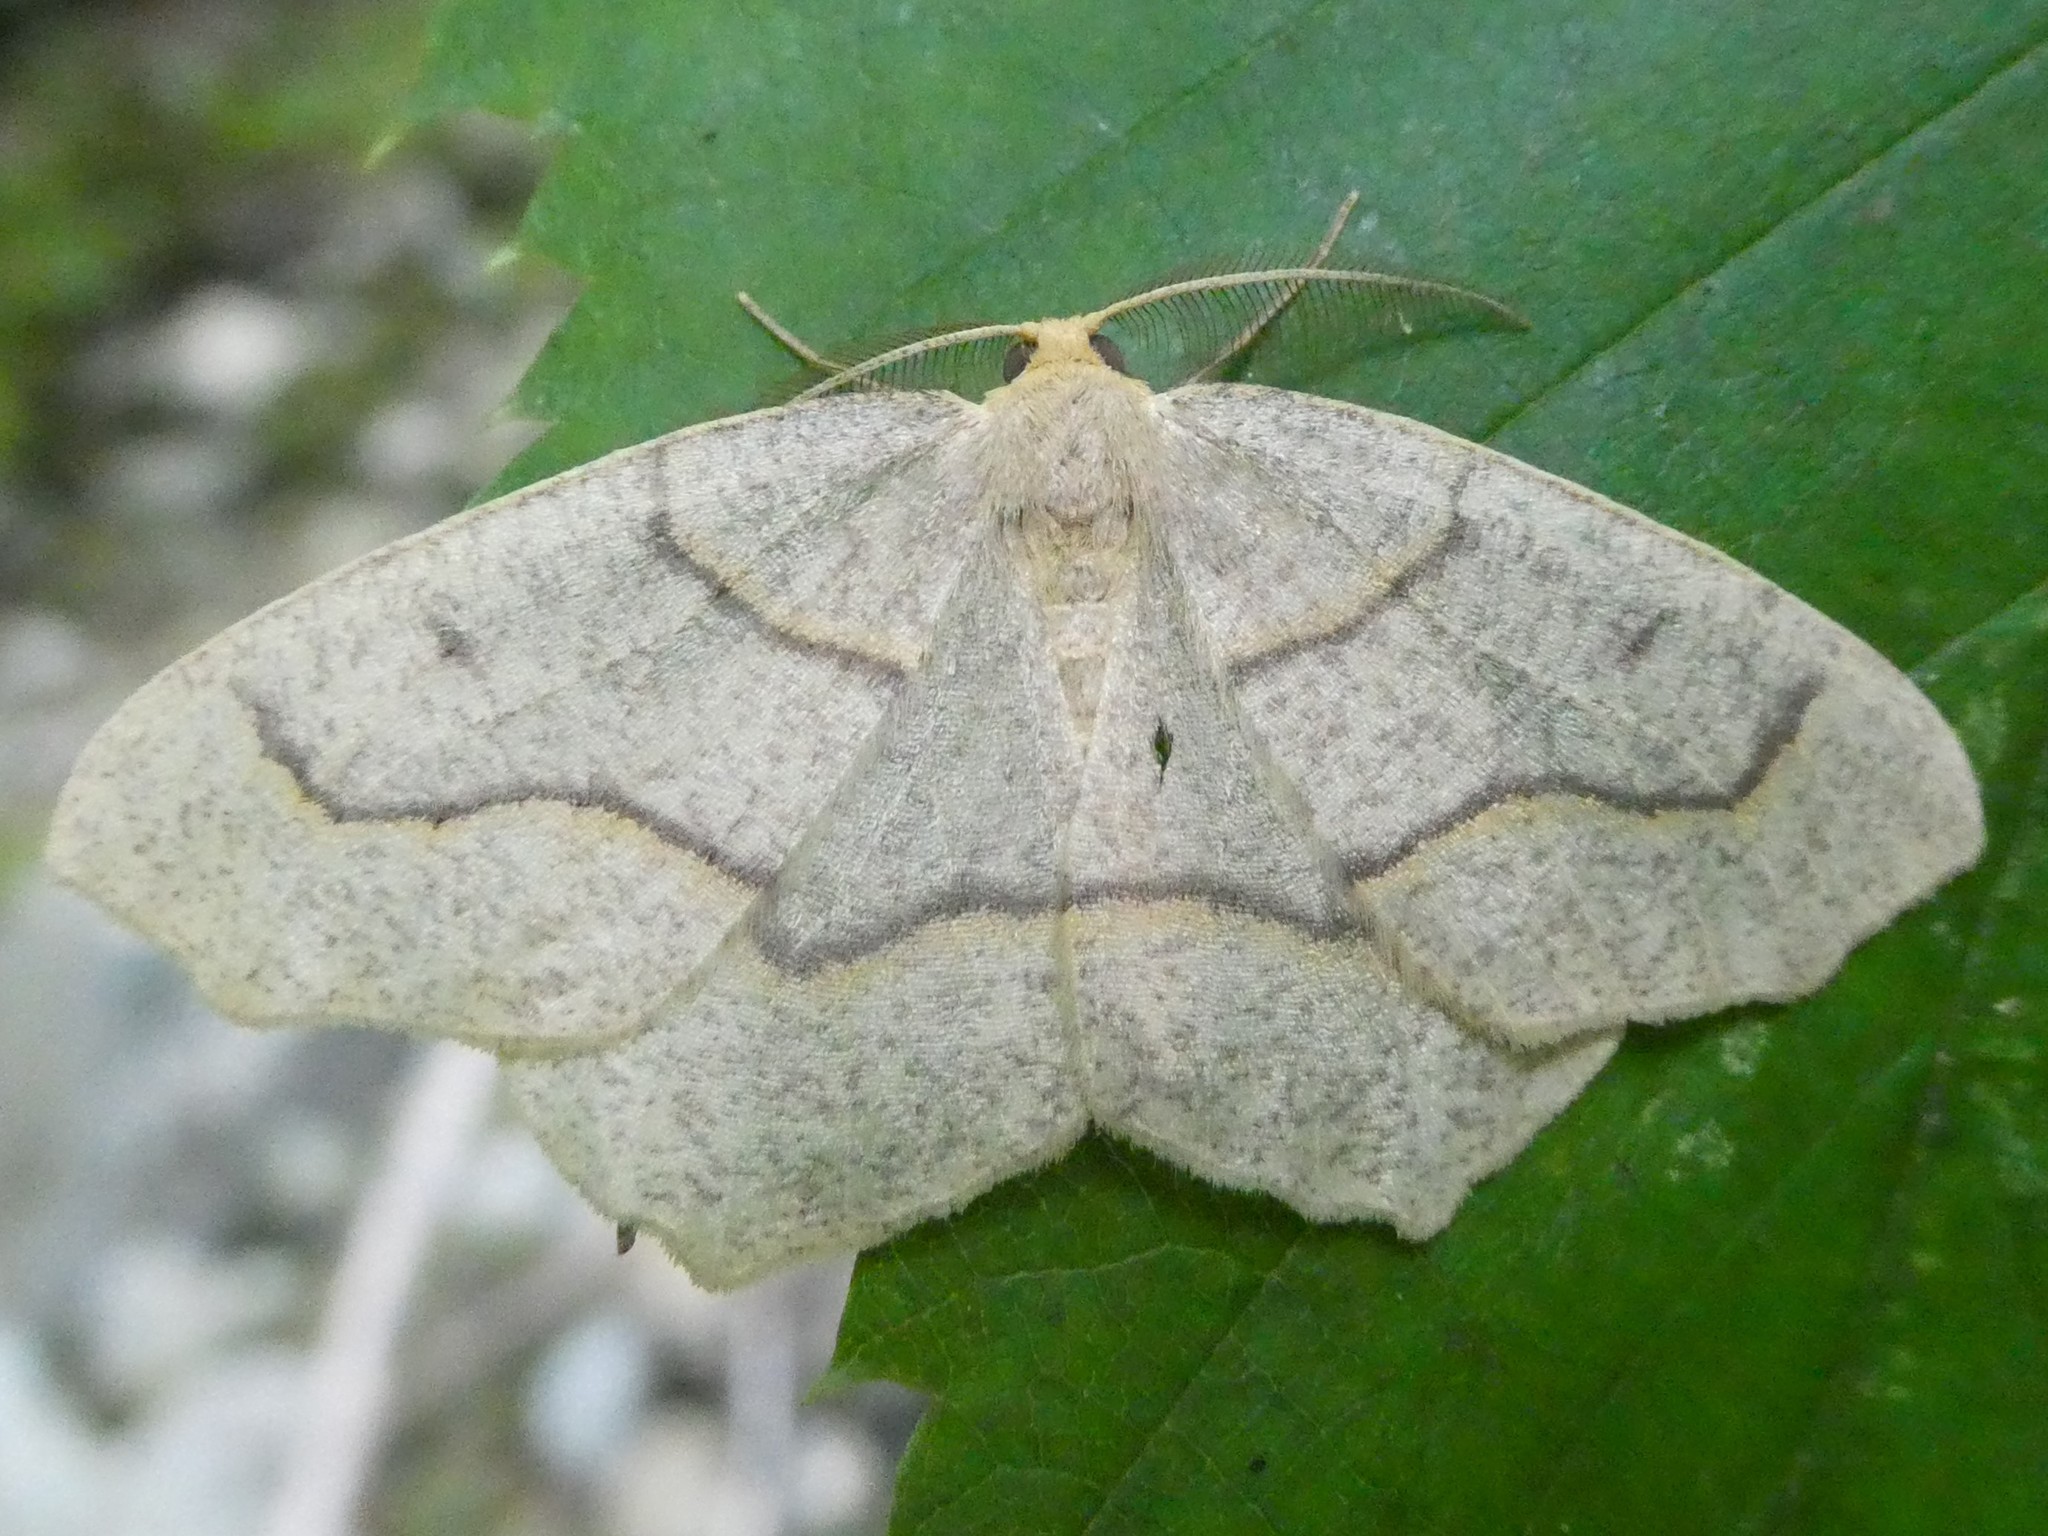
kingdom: Animalia
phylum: Arthropoda
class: Insecta
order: Lepidoptera
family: Geometridae
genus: Lambdina
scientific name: Lambdina fiscellaria
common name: Hemlock looper
